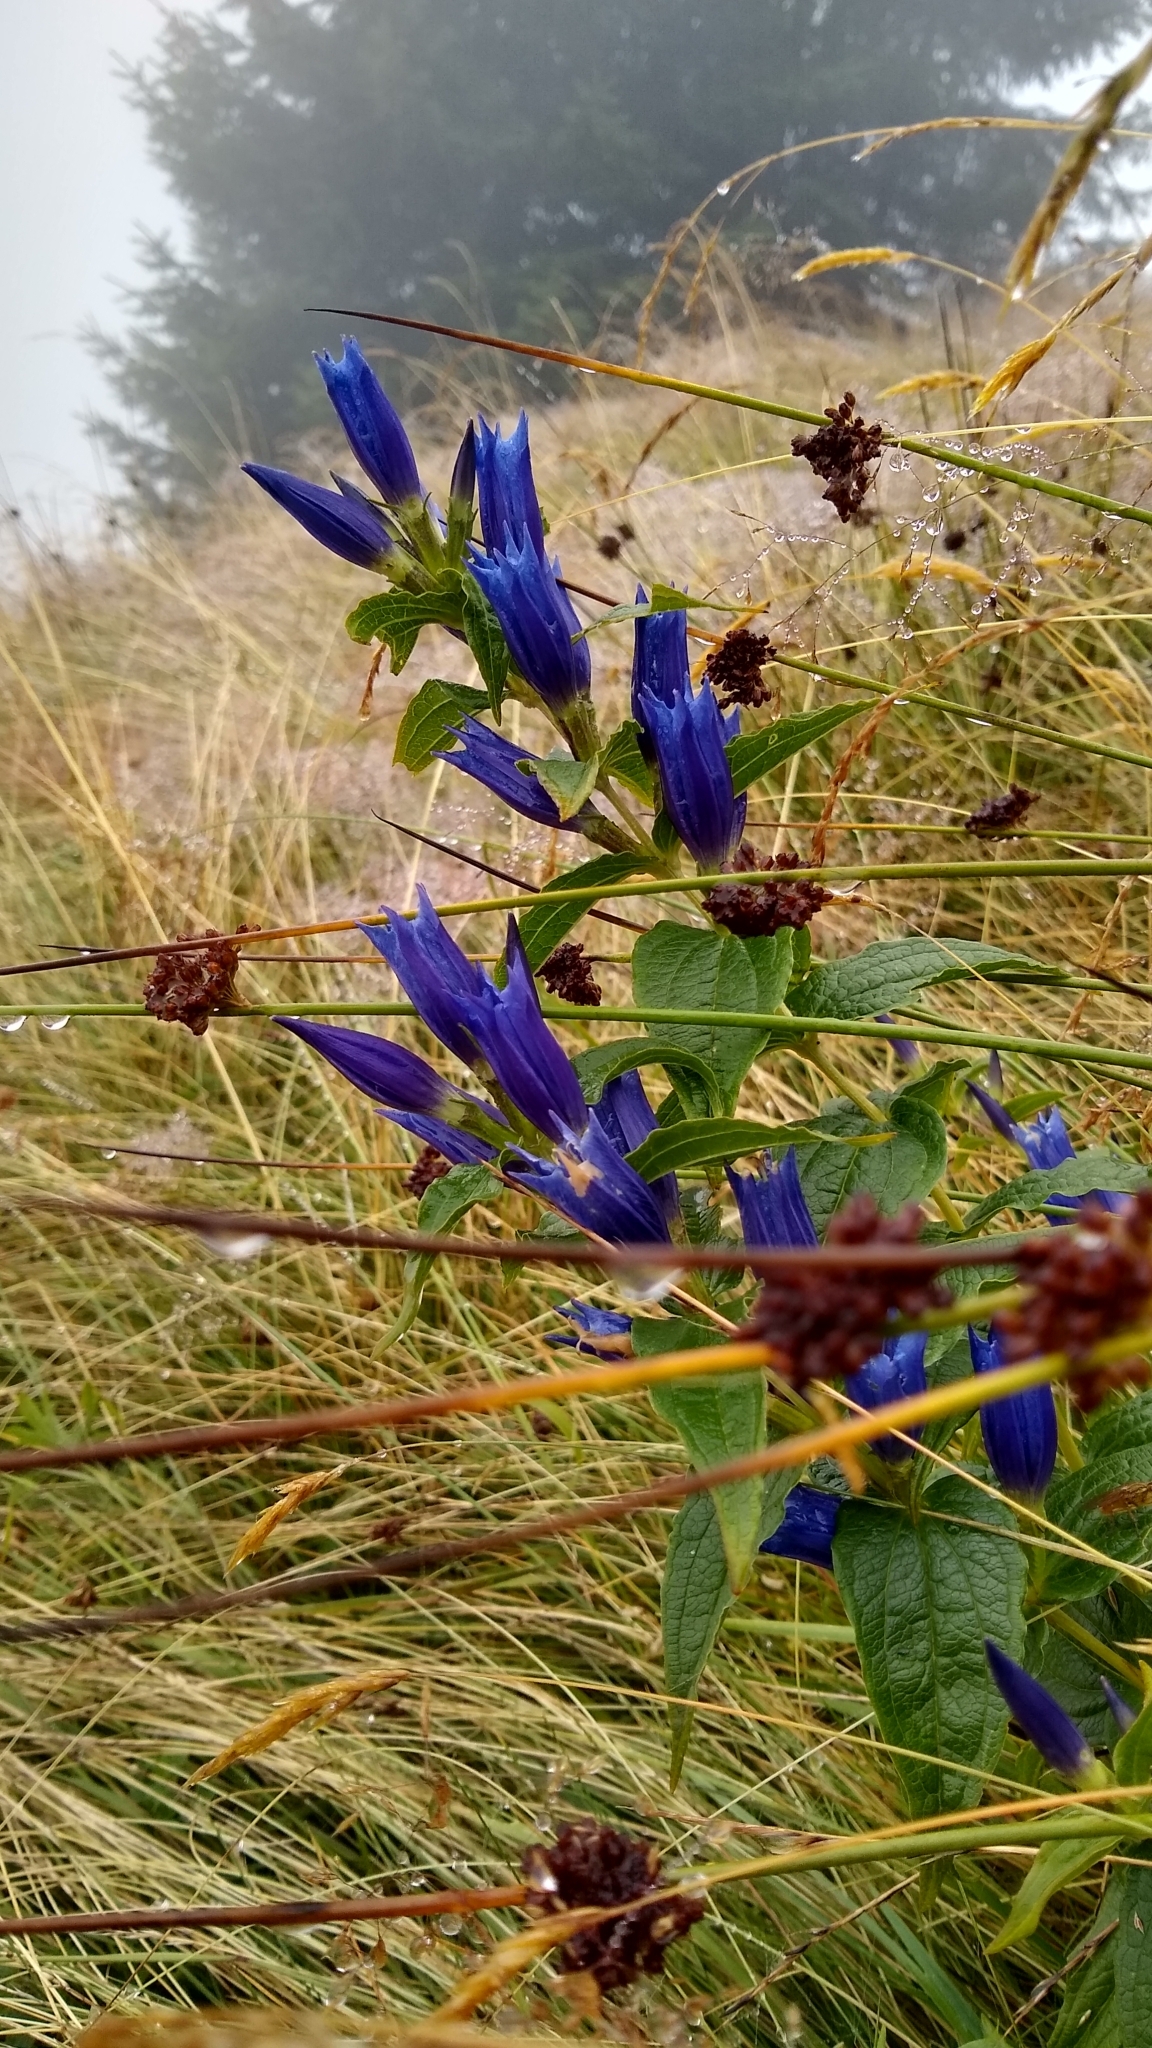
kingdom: Plantae
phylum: Tracheophyta
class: Magnoliopsida
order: Gentianales
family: Gentianaceae
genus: Gentiana
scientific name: Gentiana asclepiadea
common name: Willow gentian
